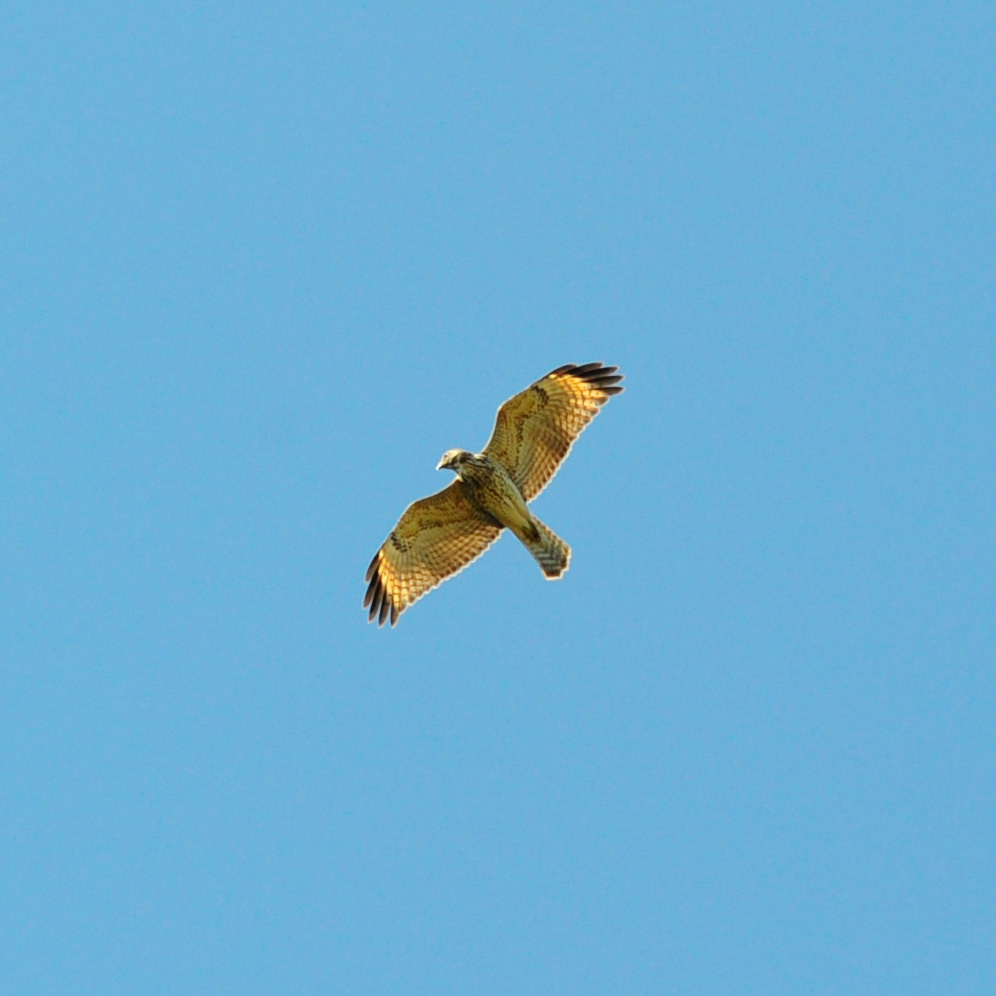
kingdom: Animalia
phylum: Chordata
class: Aves
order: Accipitriformes
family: Accipitridae
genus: Buteo
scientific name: Buteo lineatus
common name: Red-shouldered hawk
